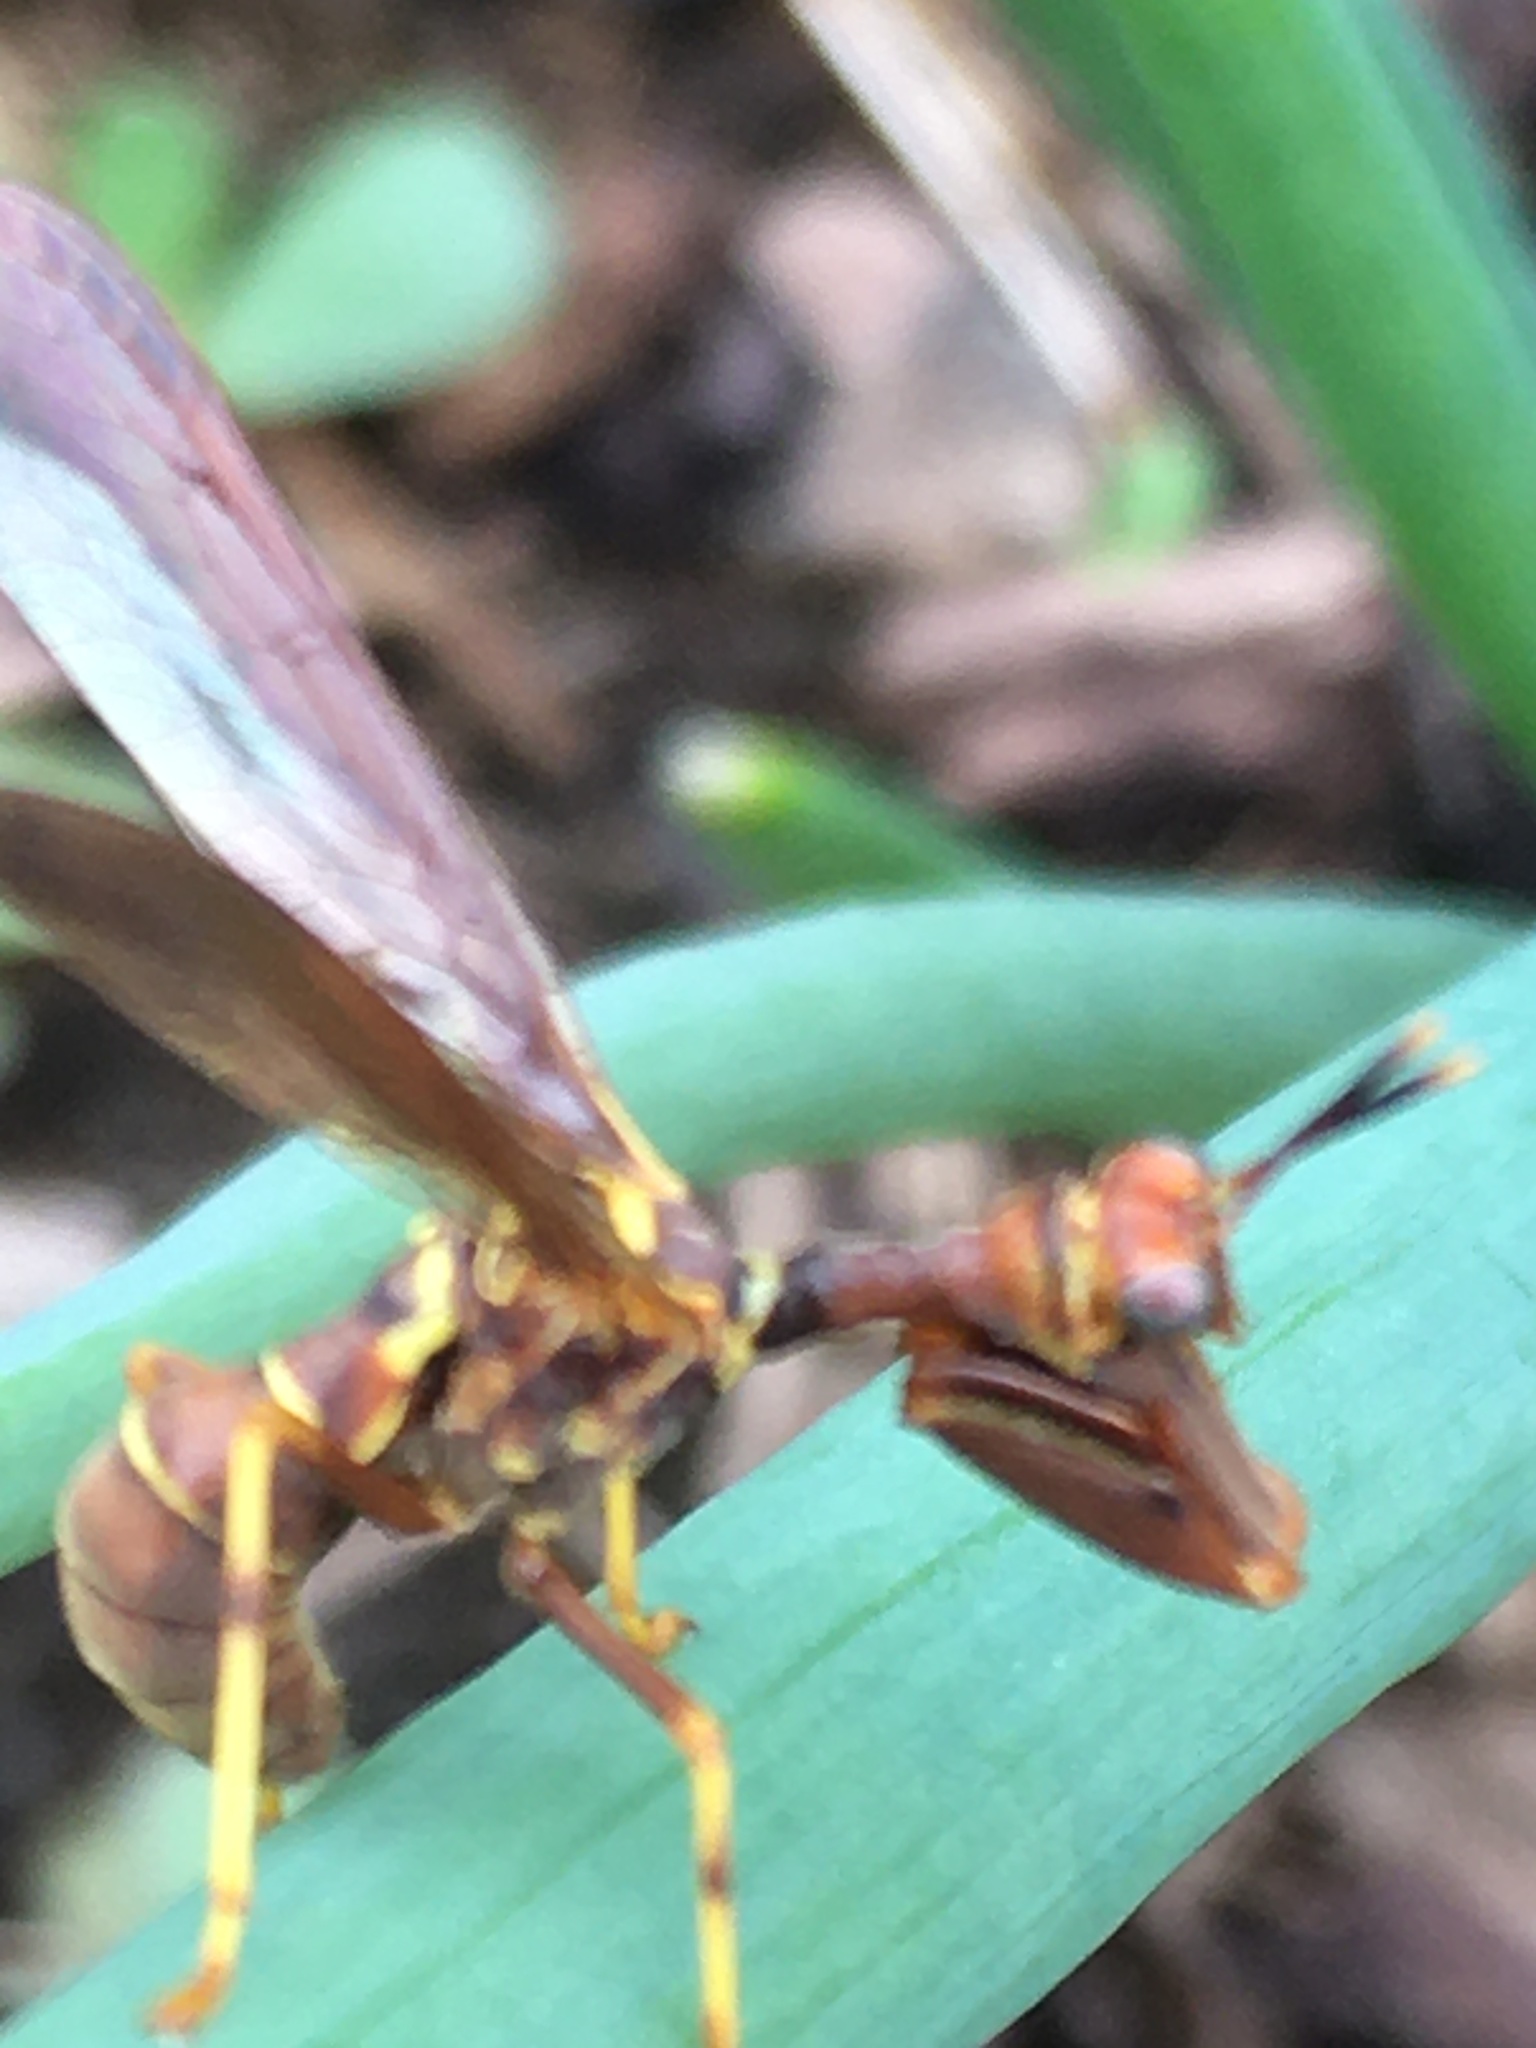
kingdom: Animalia
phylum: Arthropoda
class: Insecta
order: Neuroptera
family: Mantispidae
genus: Climaciella
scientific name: Climaciella brunnea
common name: Brown wasp mantidfly
